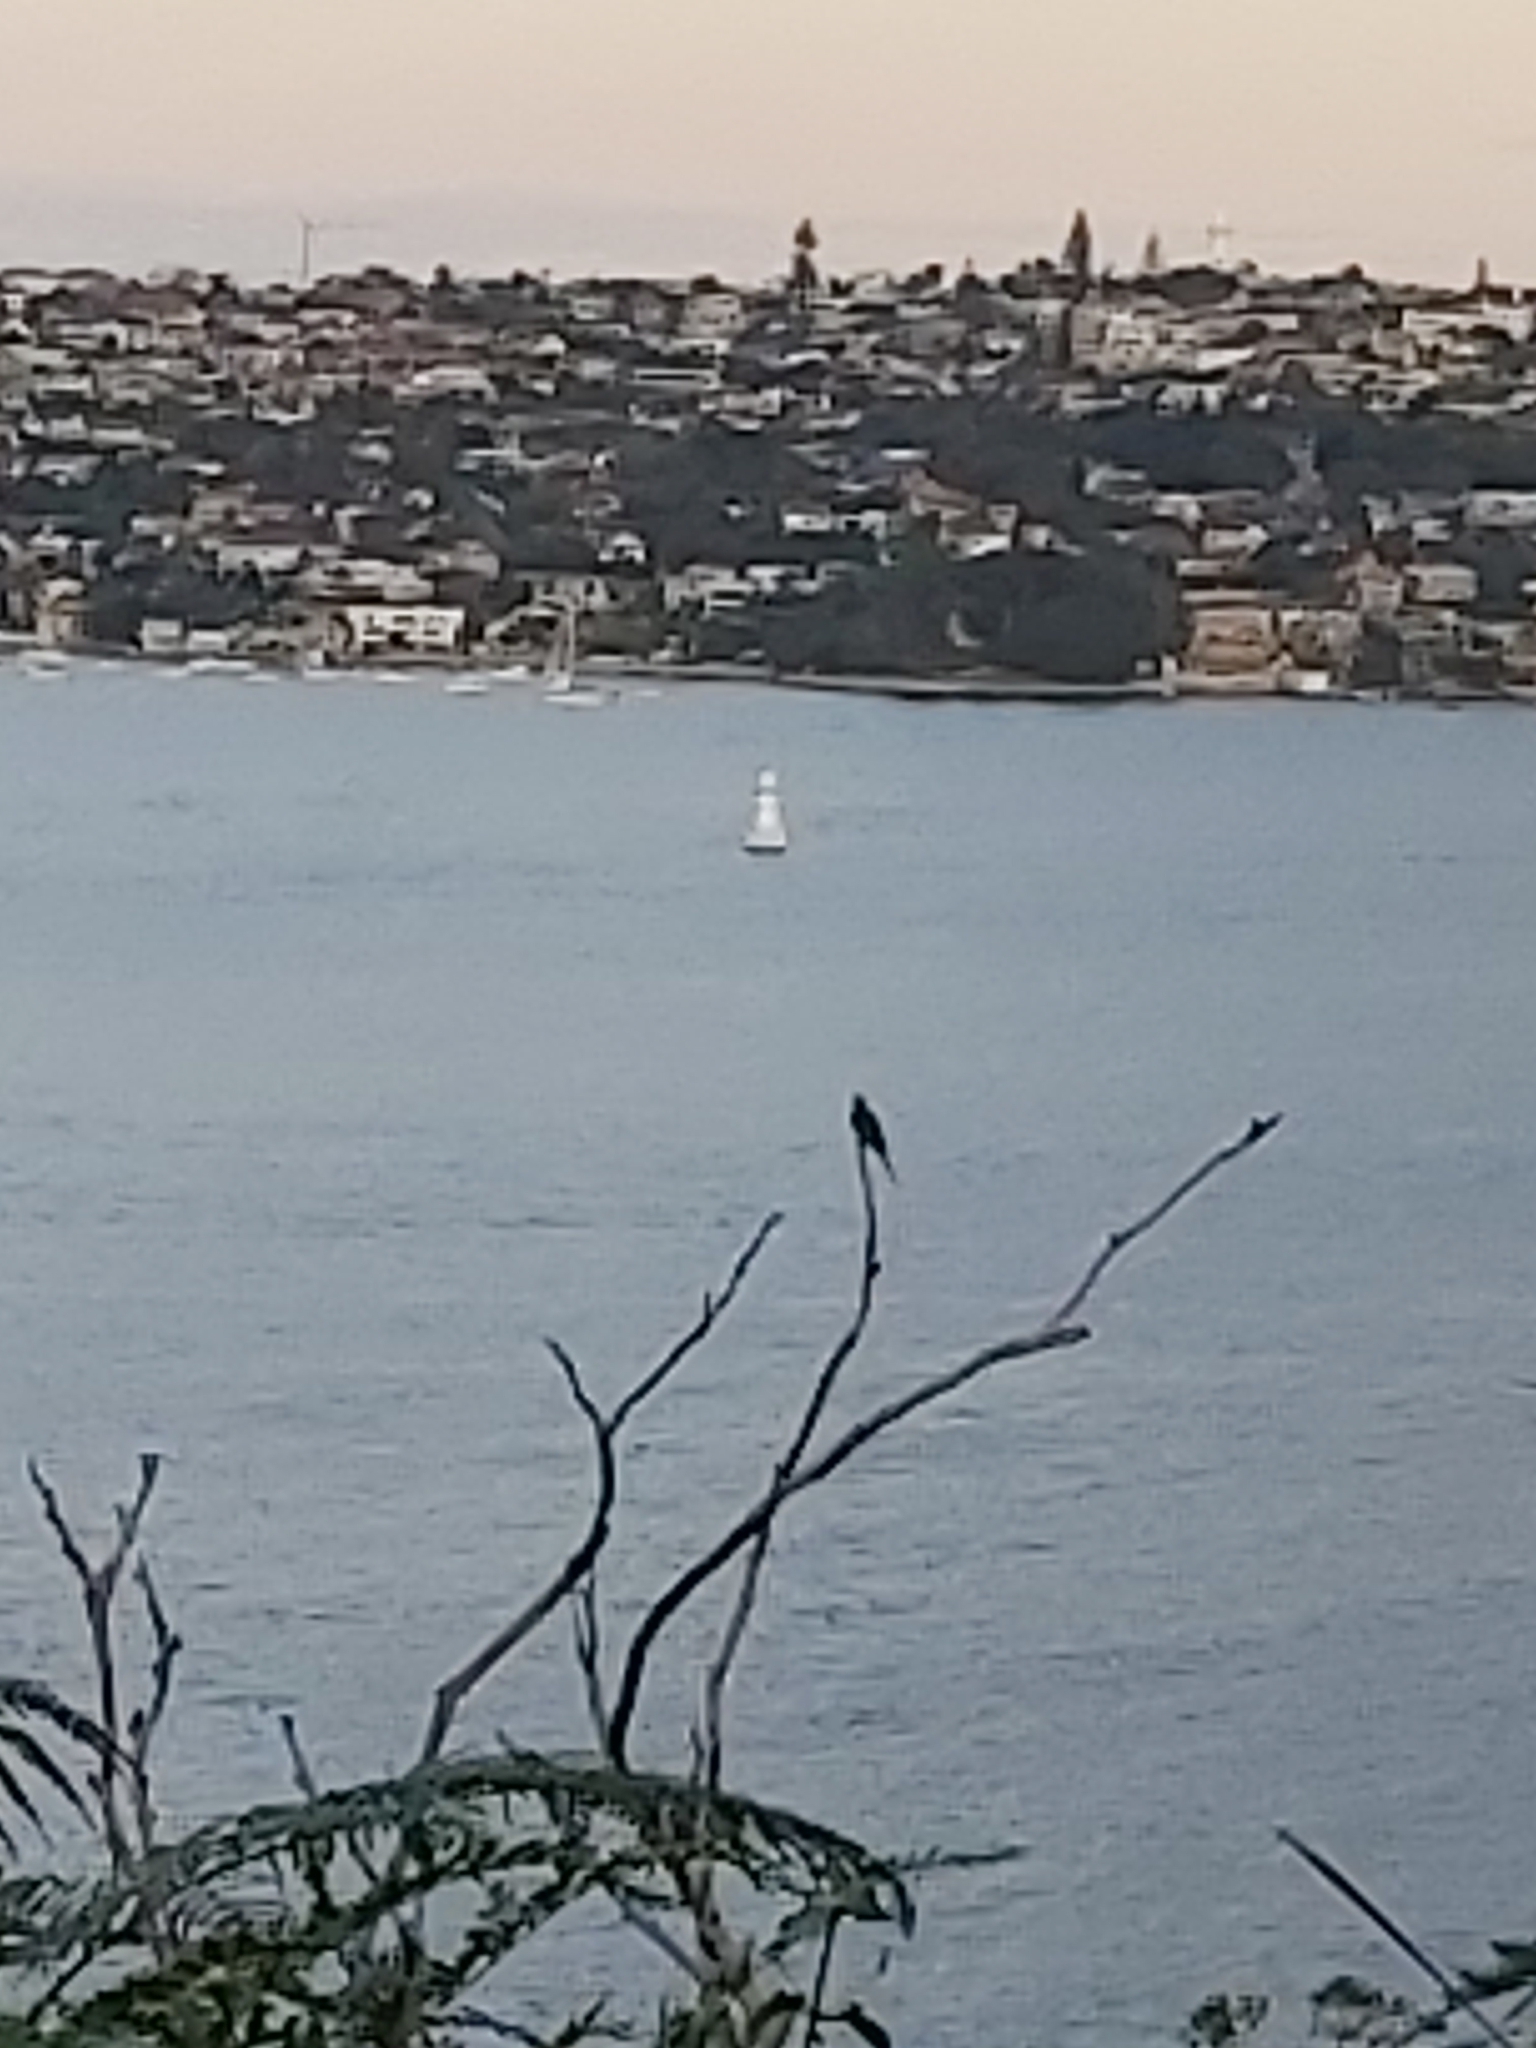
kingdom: Animalia
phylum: Chordata
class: Aves
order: Psittaciformes
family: Psittacidae
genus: Trichoglossus
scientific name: Trichoglossus haematodus
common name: Coconut lorikeet
